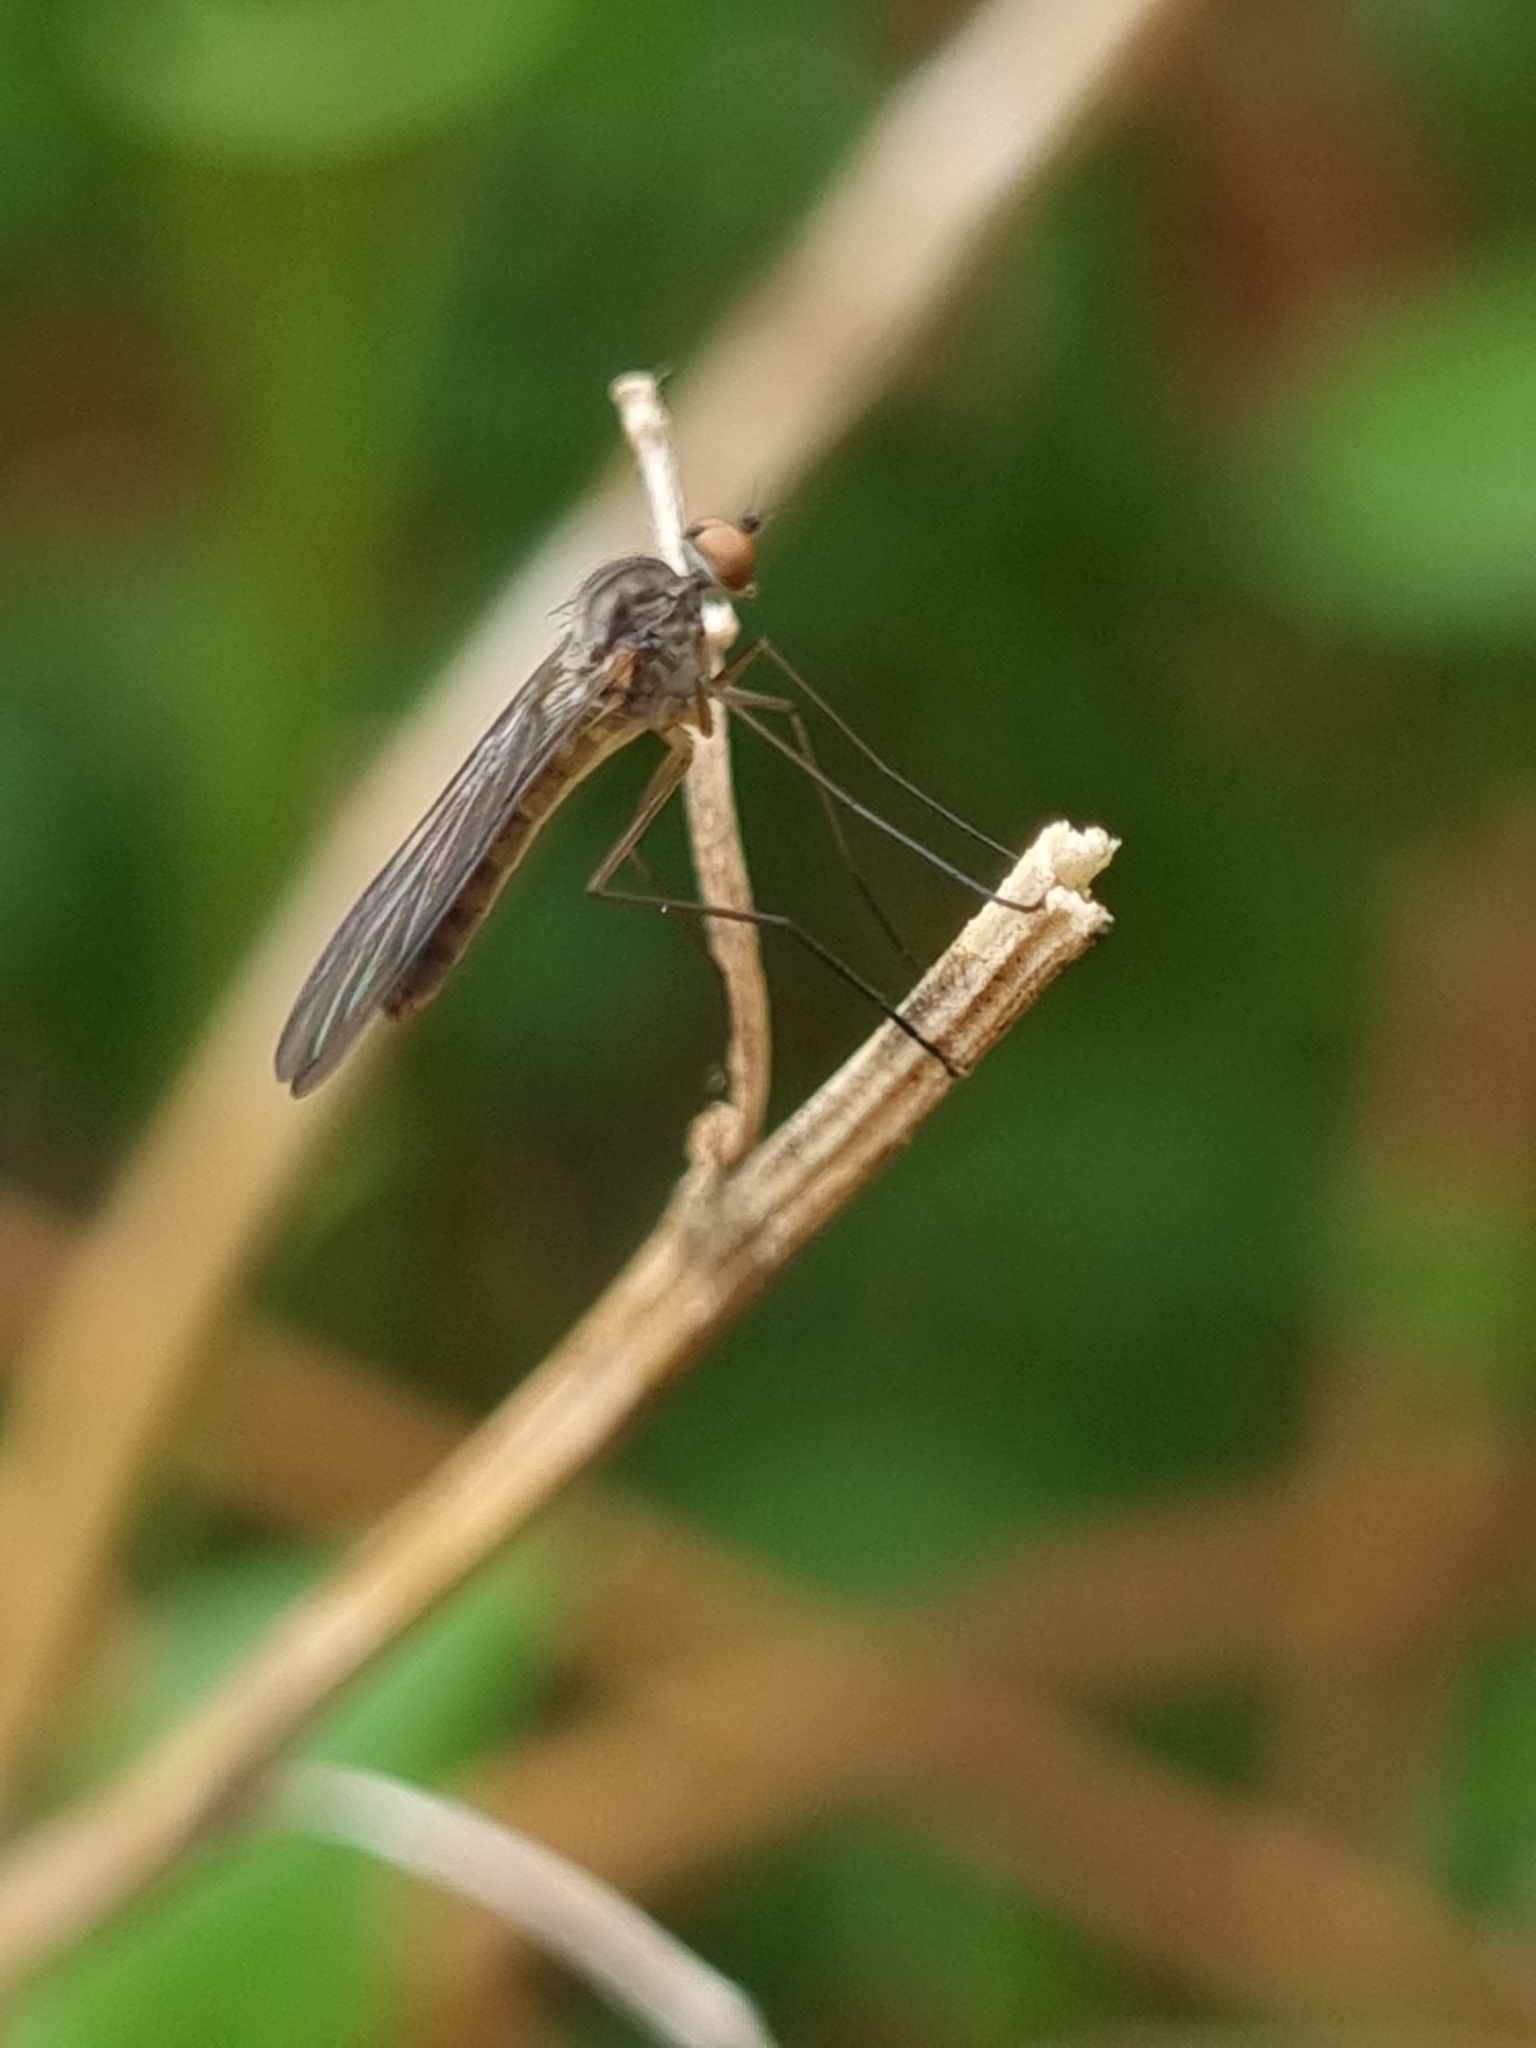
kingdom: Animalia
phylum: Arthropoda
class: Insecta
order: Diptera
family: Oreogetonidae
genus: Oreogeton
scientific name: Oreogeton
